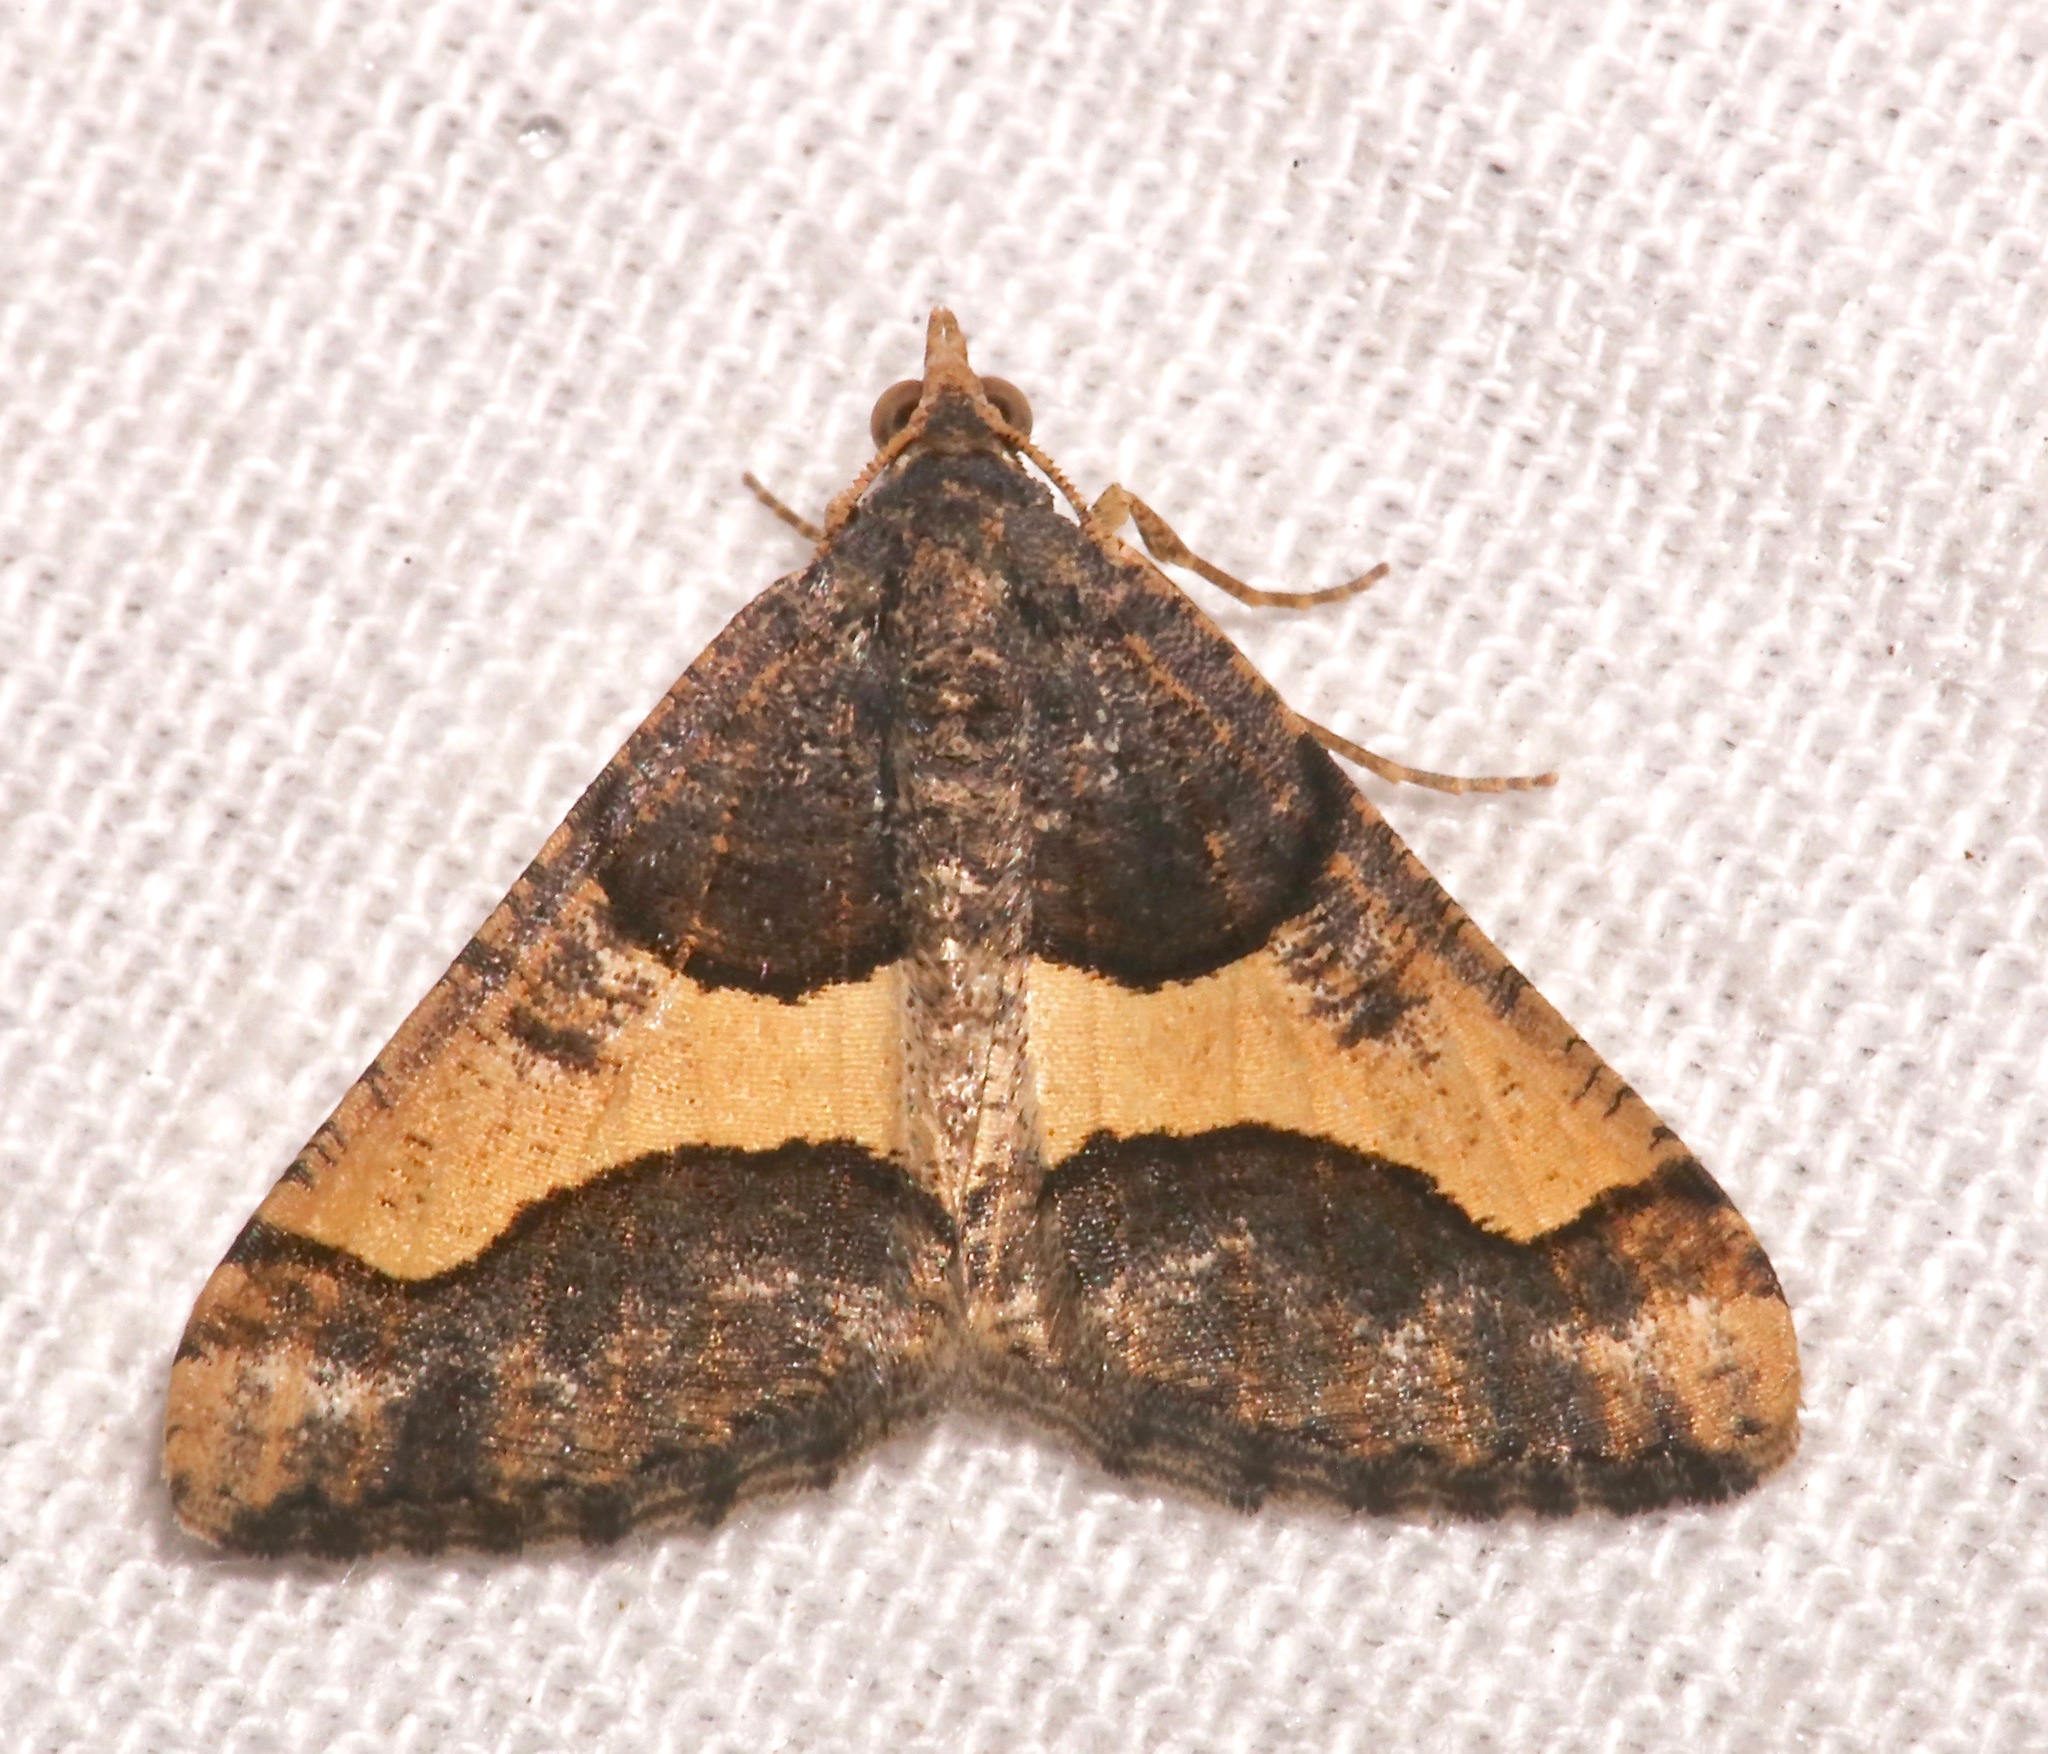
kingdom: Animalia
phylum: Arthropoda
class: Insecta
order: Lepidoptera
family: Geometridae
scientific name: Geometridae
